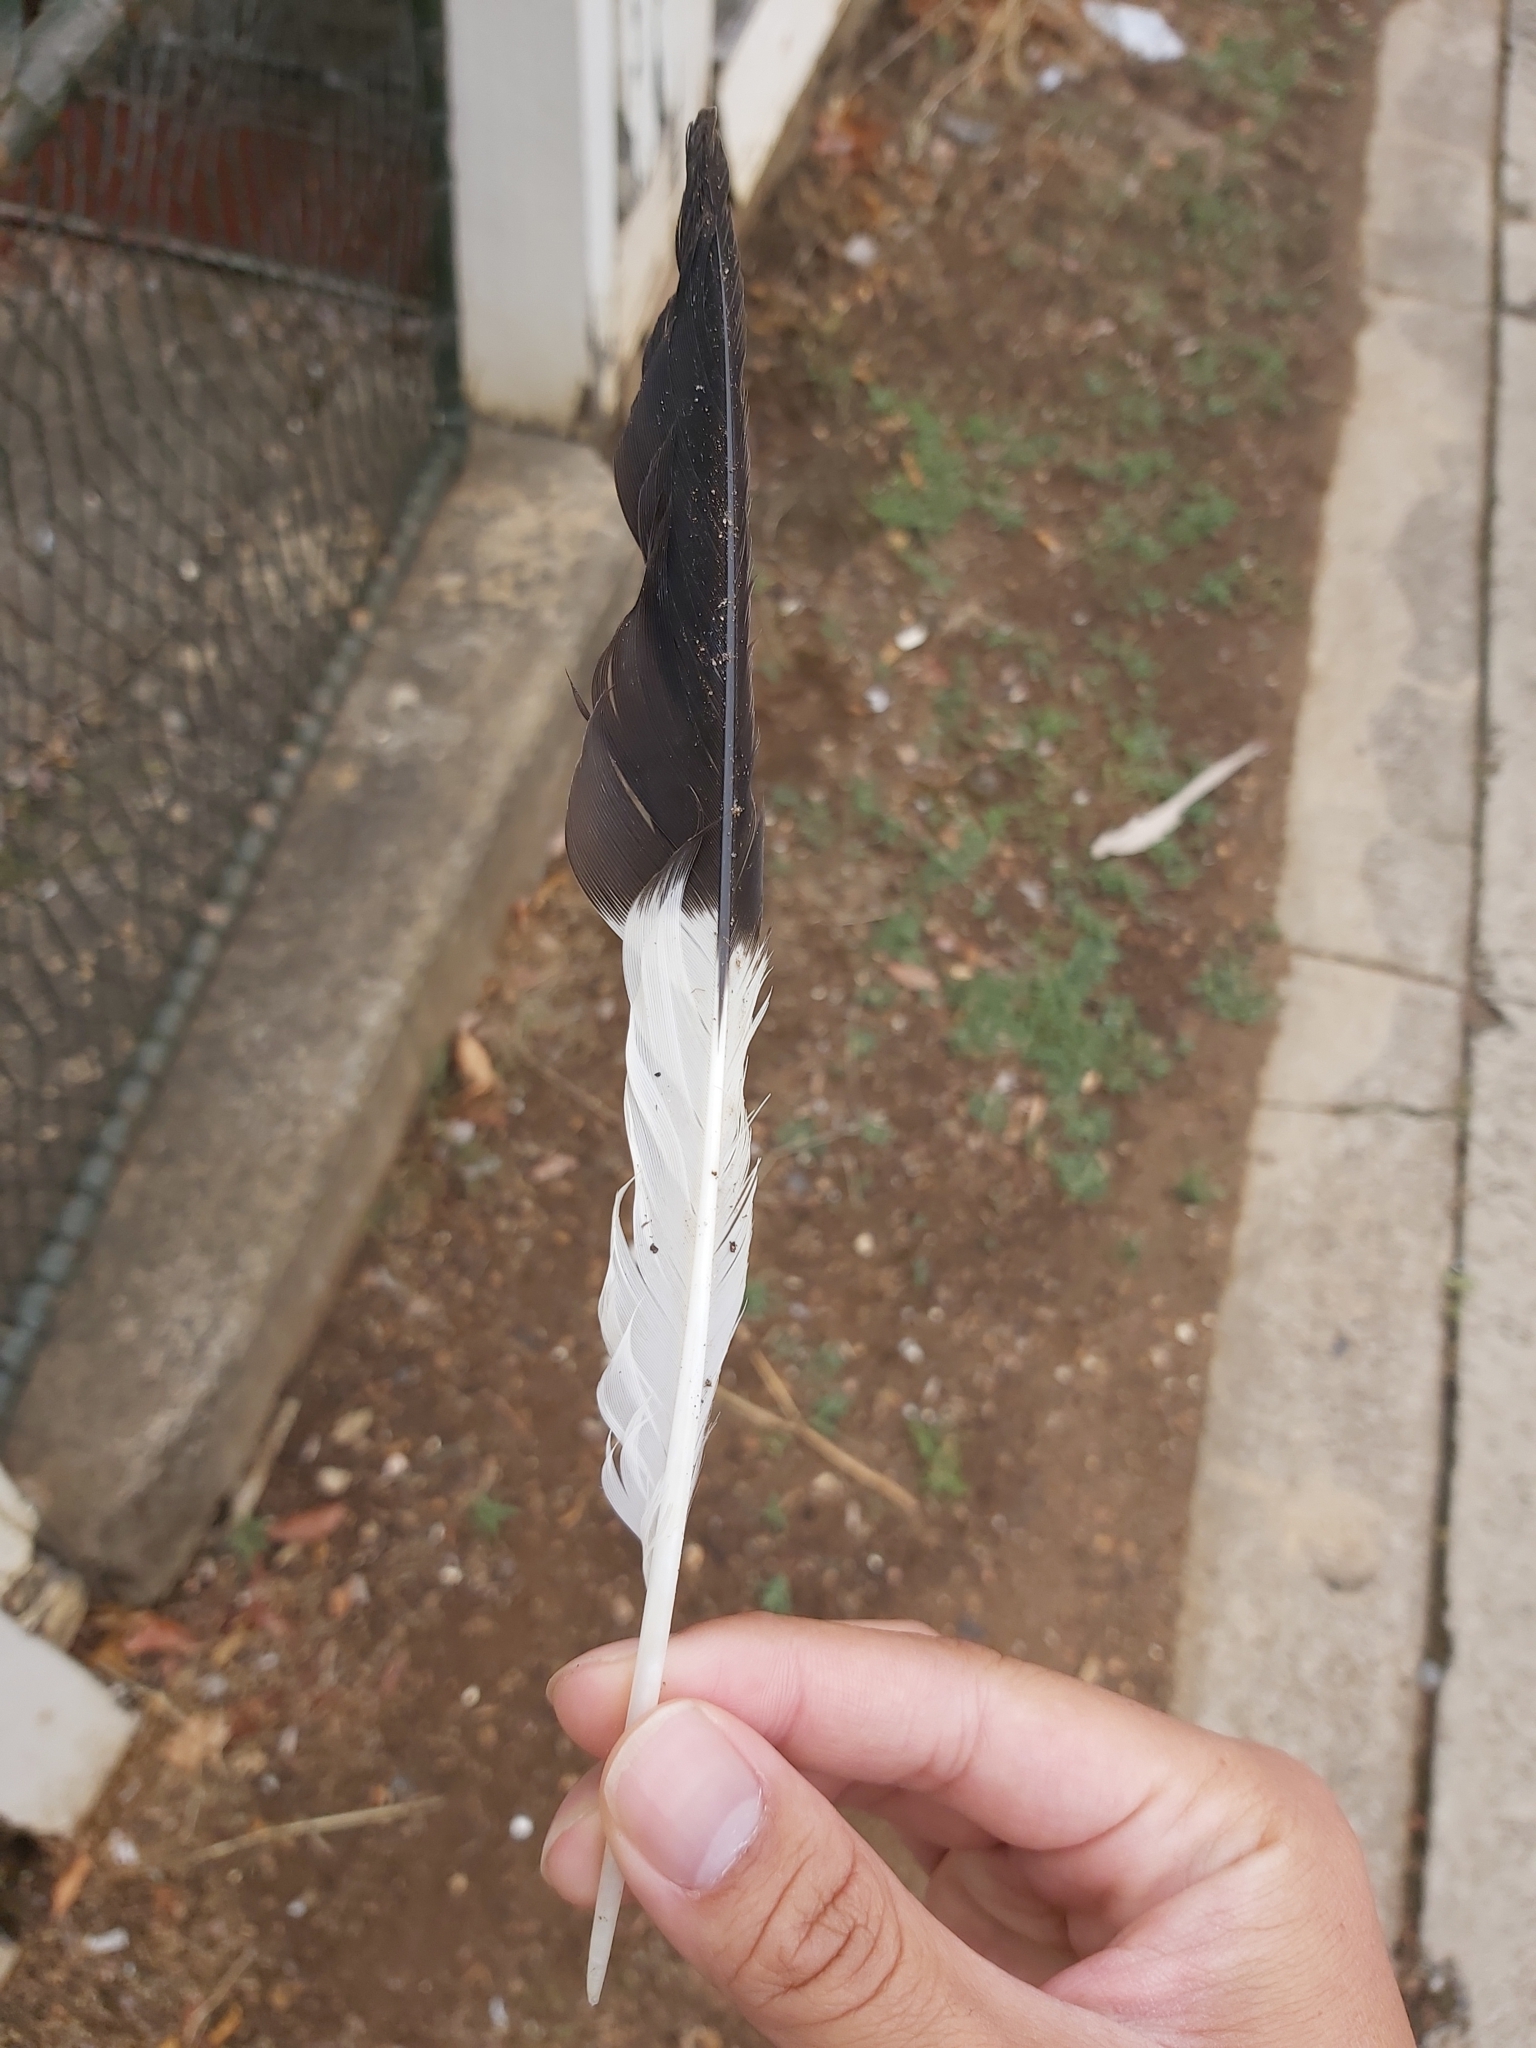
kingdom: Animalia
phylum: Chordata
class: Aves
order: Passeriformes
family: Cracticidae
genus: Strepera
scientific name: Strepera graculina
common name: Pied currawong
